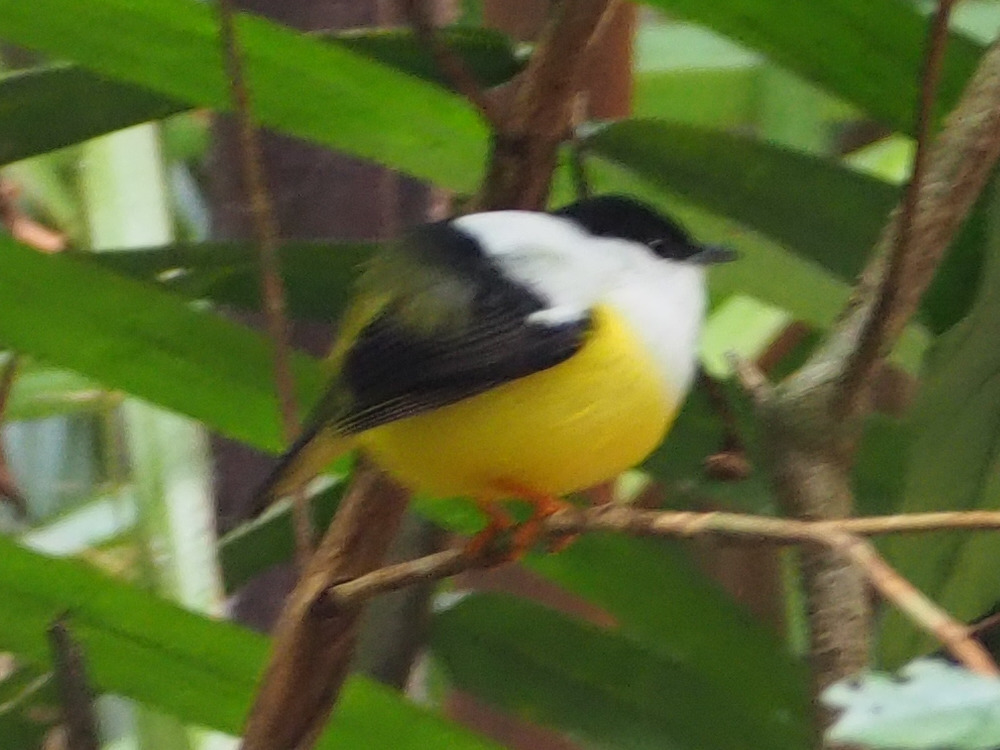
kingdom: Animalia
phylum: Chordata
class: Aves
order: Passeriformes
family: Pipridae
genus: Manacus
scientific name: Manacus candei
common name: White-collared manakin
